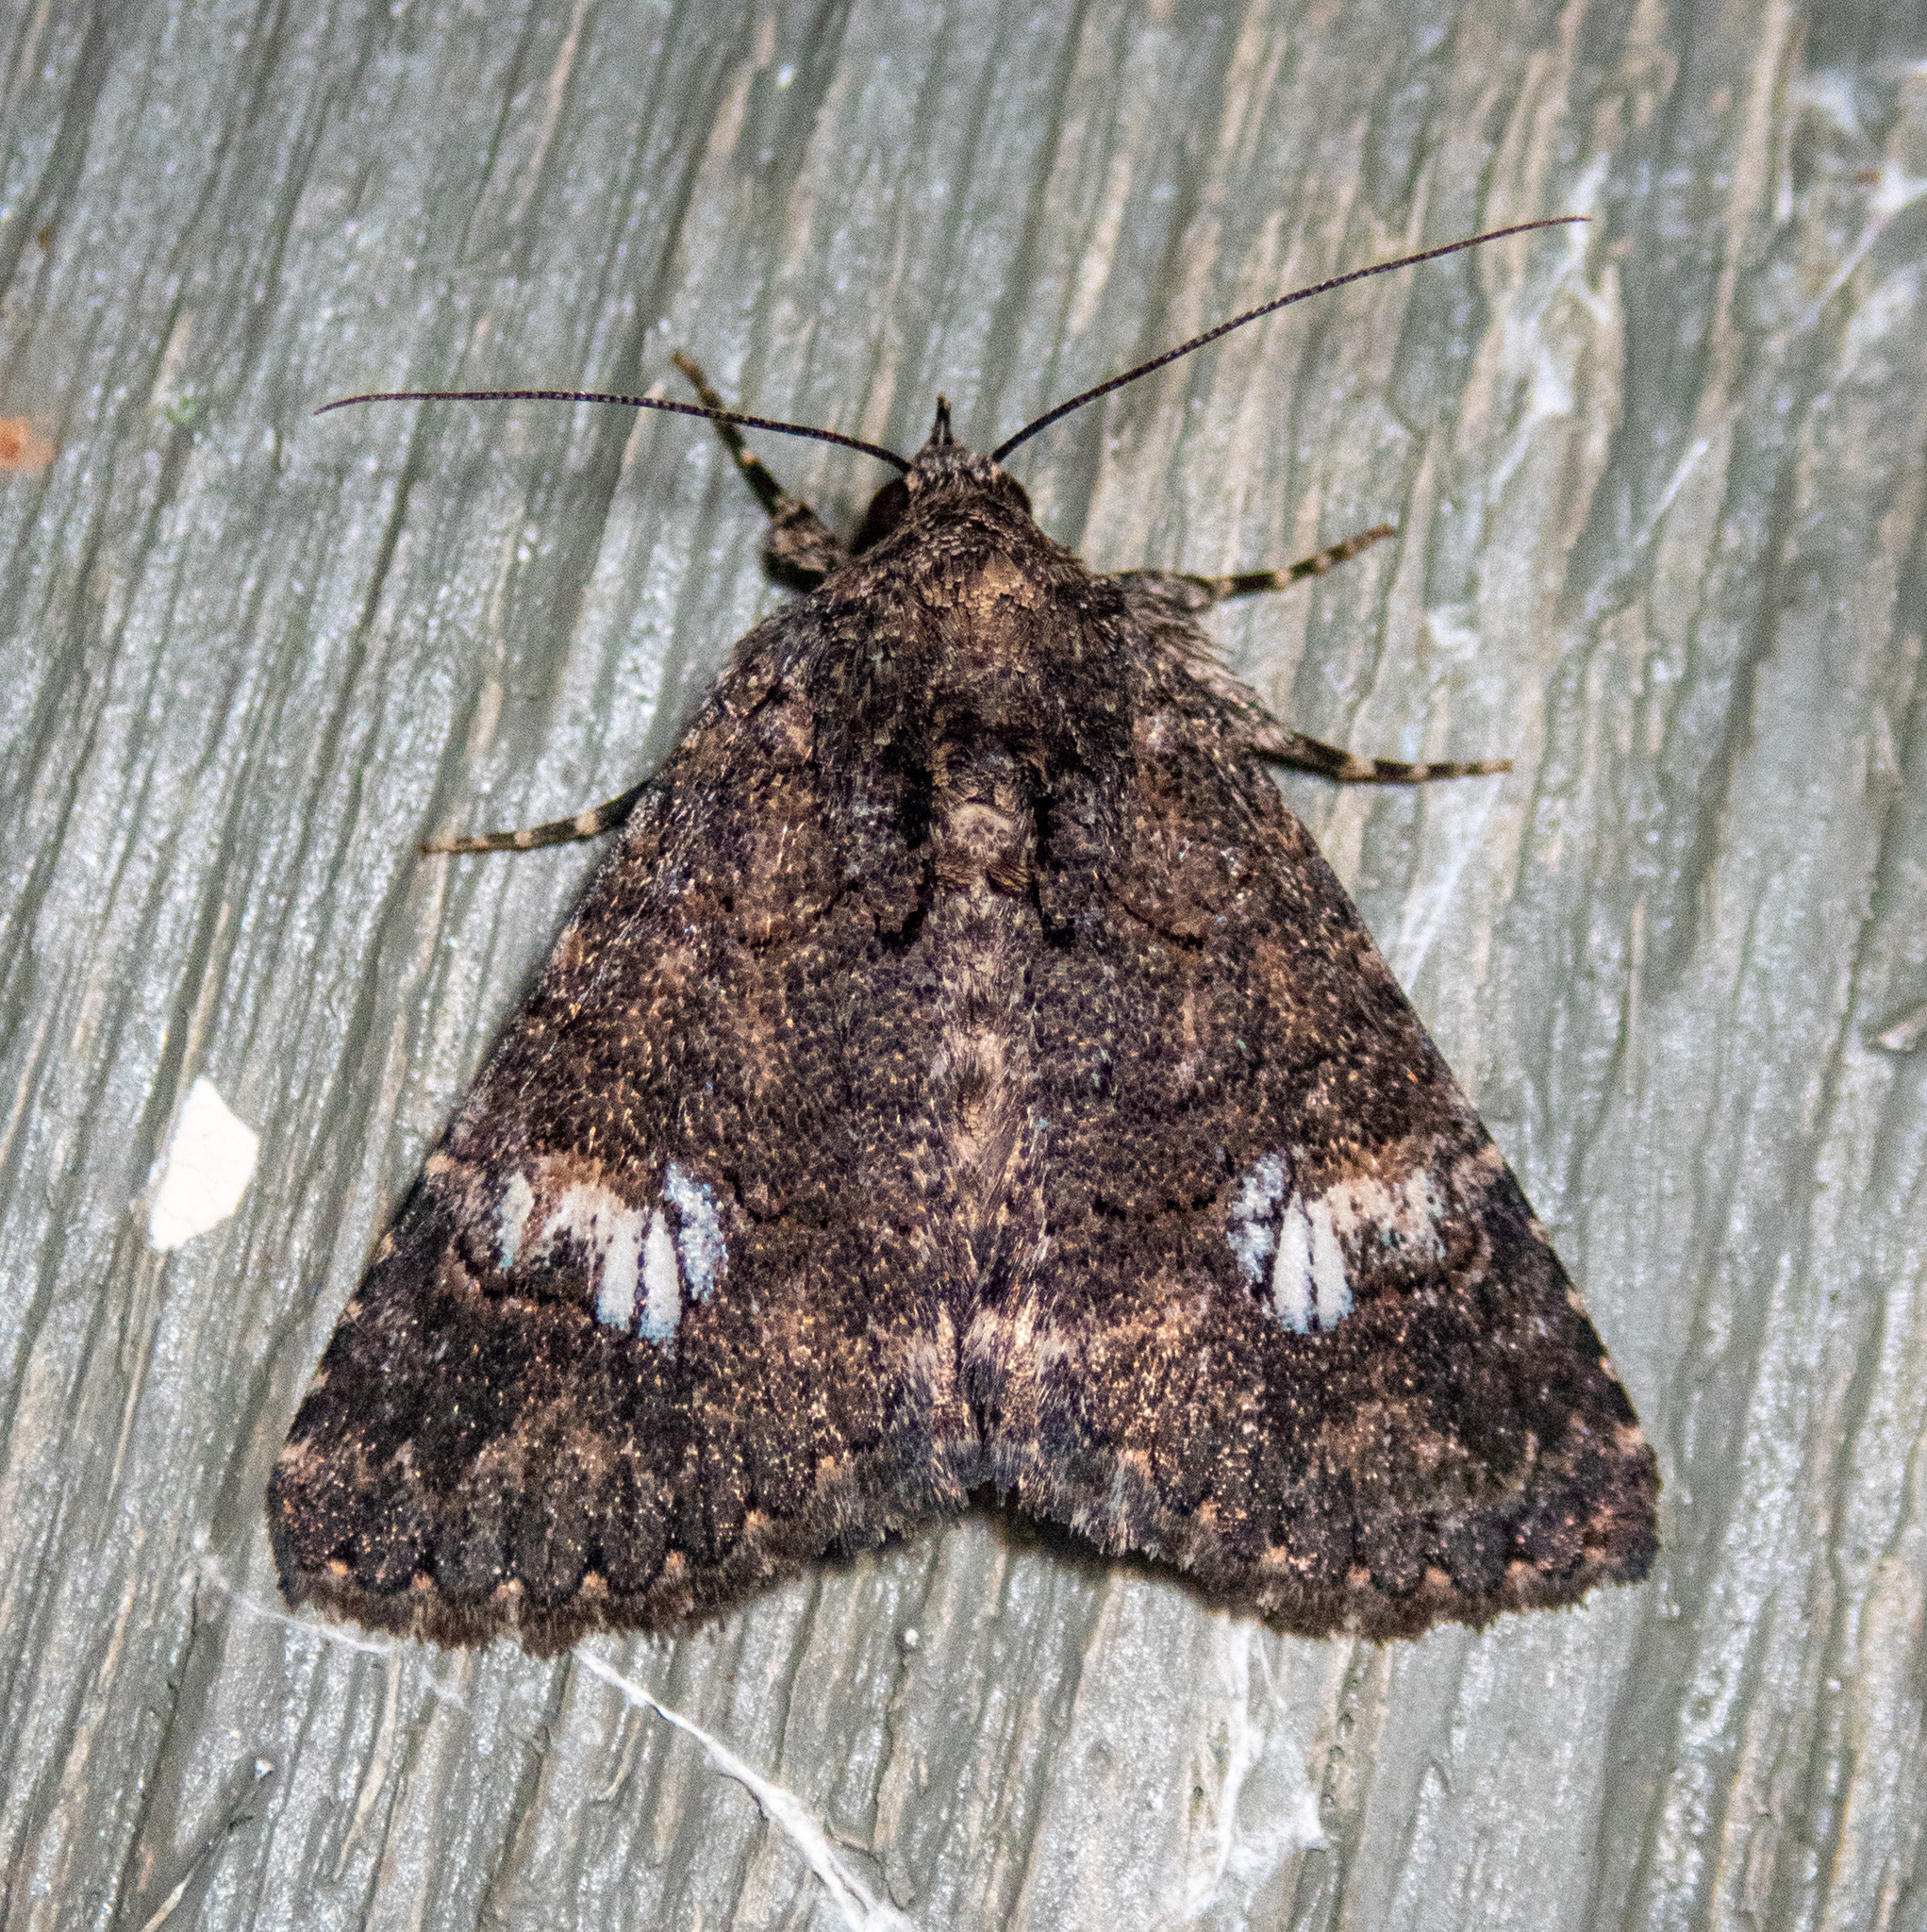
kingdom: Animalia
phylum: Arthropoda
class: Insecta
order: Lepidoptera
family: Erebidae
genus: Elousa
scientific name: Elousa mima
